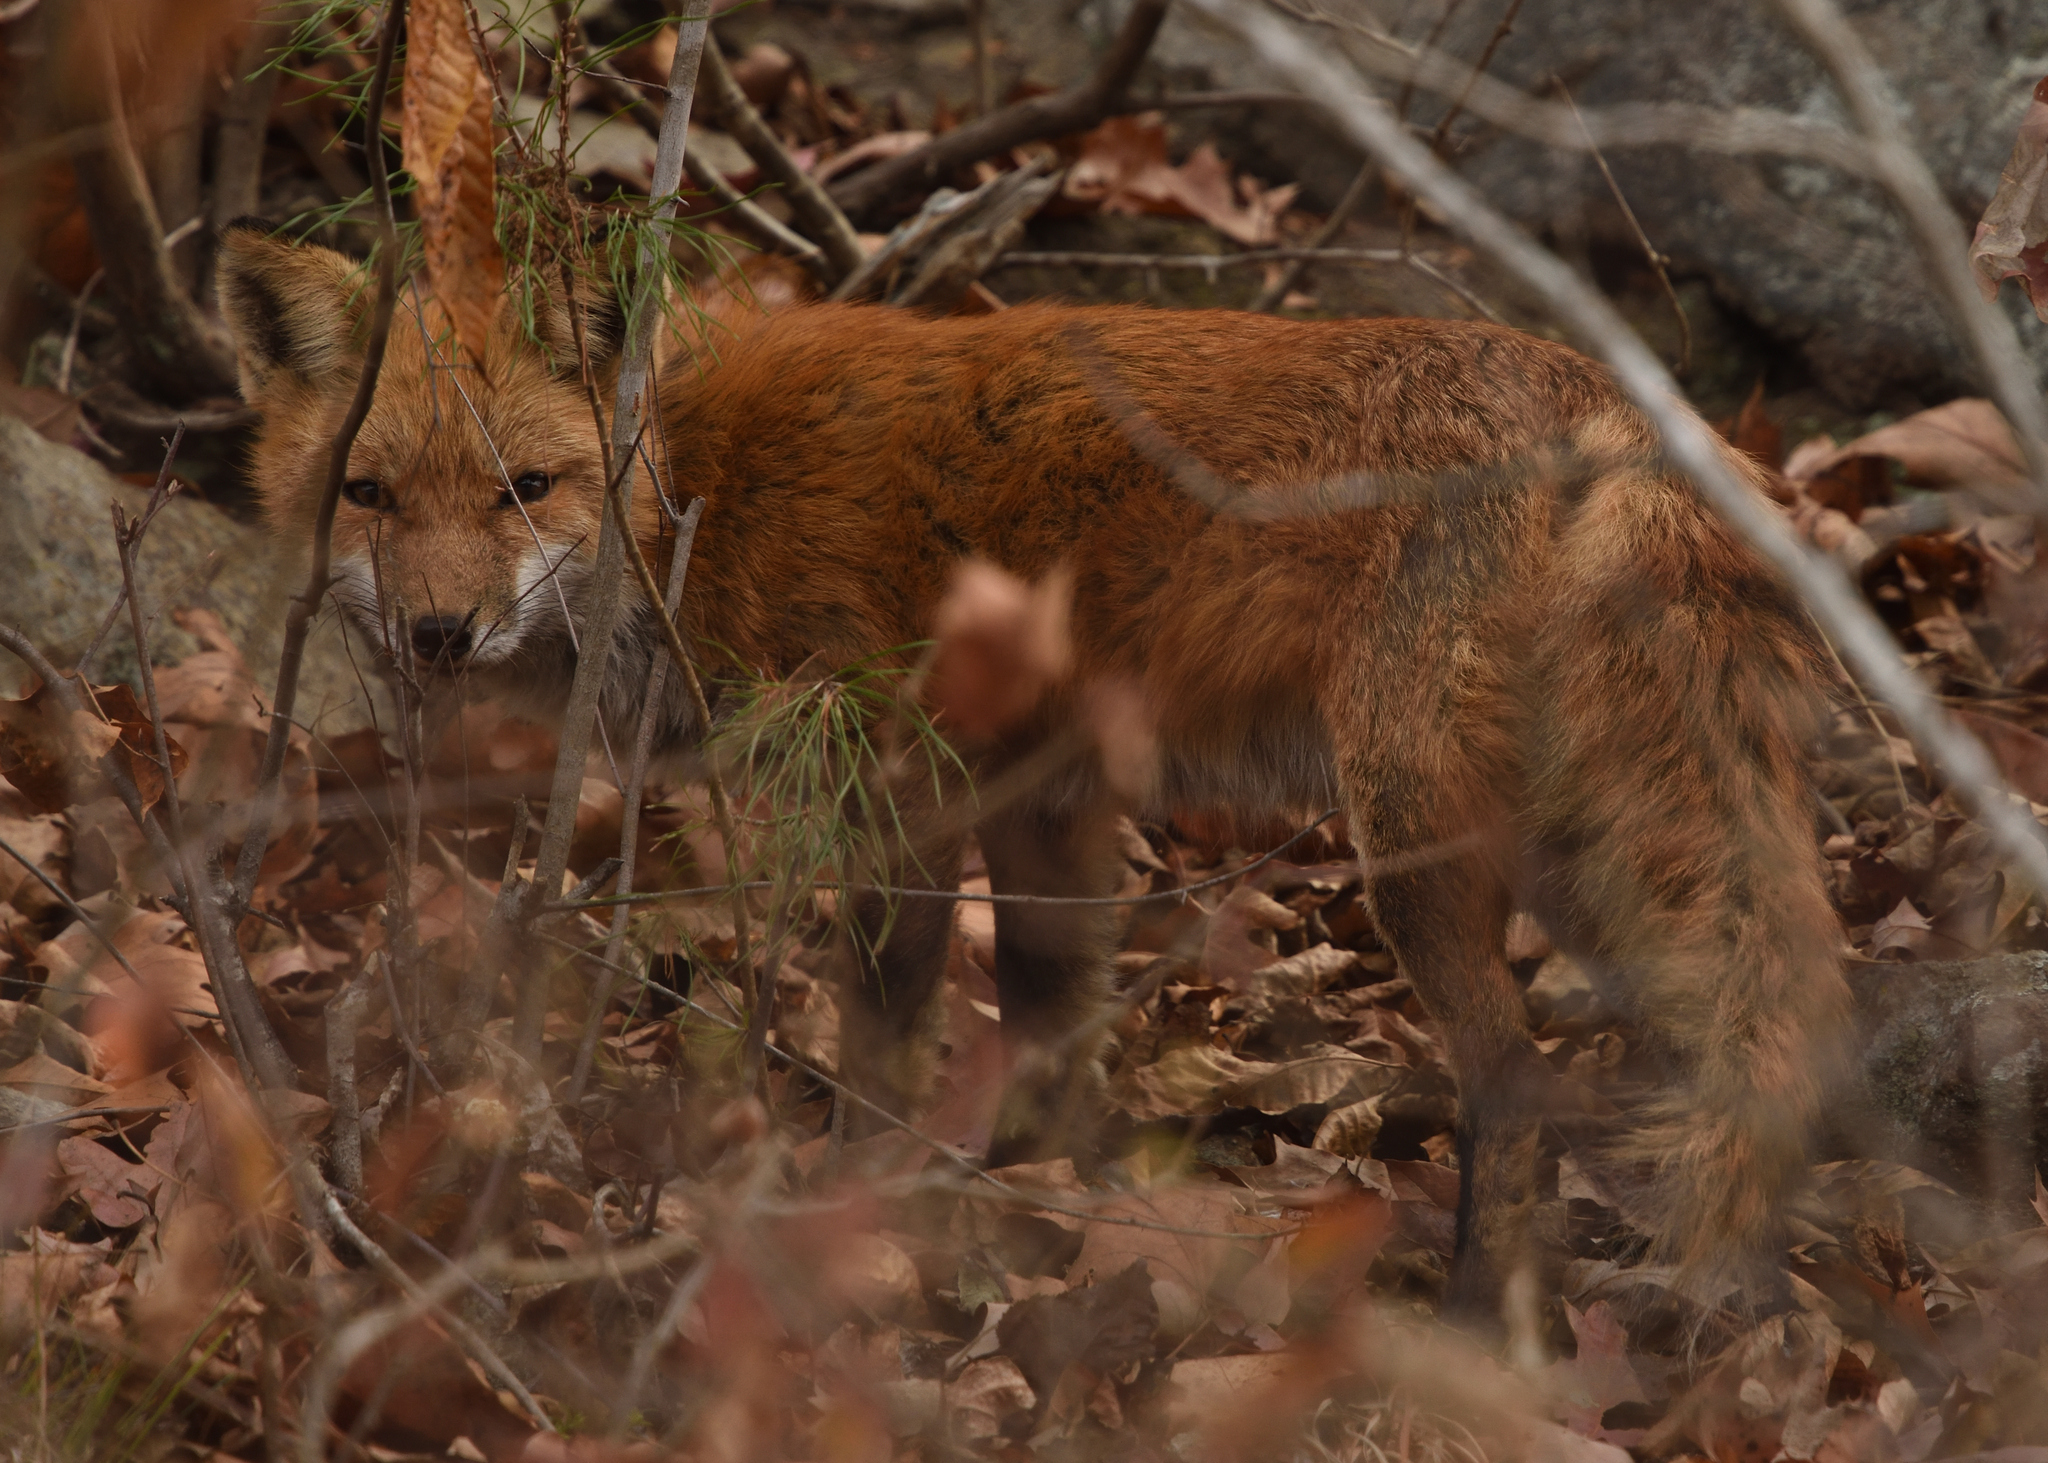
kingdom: Animalia
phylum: Chordata
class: Mammalia
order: Carnivora
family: Canidae
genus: Vulpes
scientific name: Vulpes vulpes
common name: Red fox
